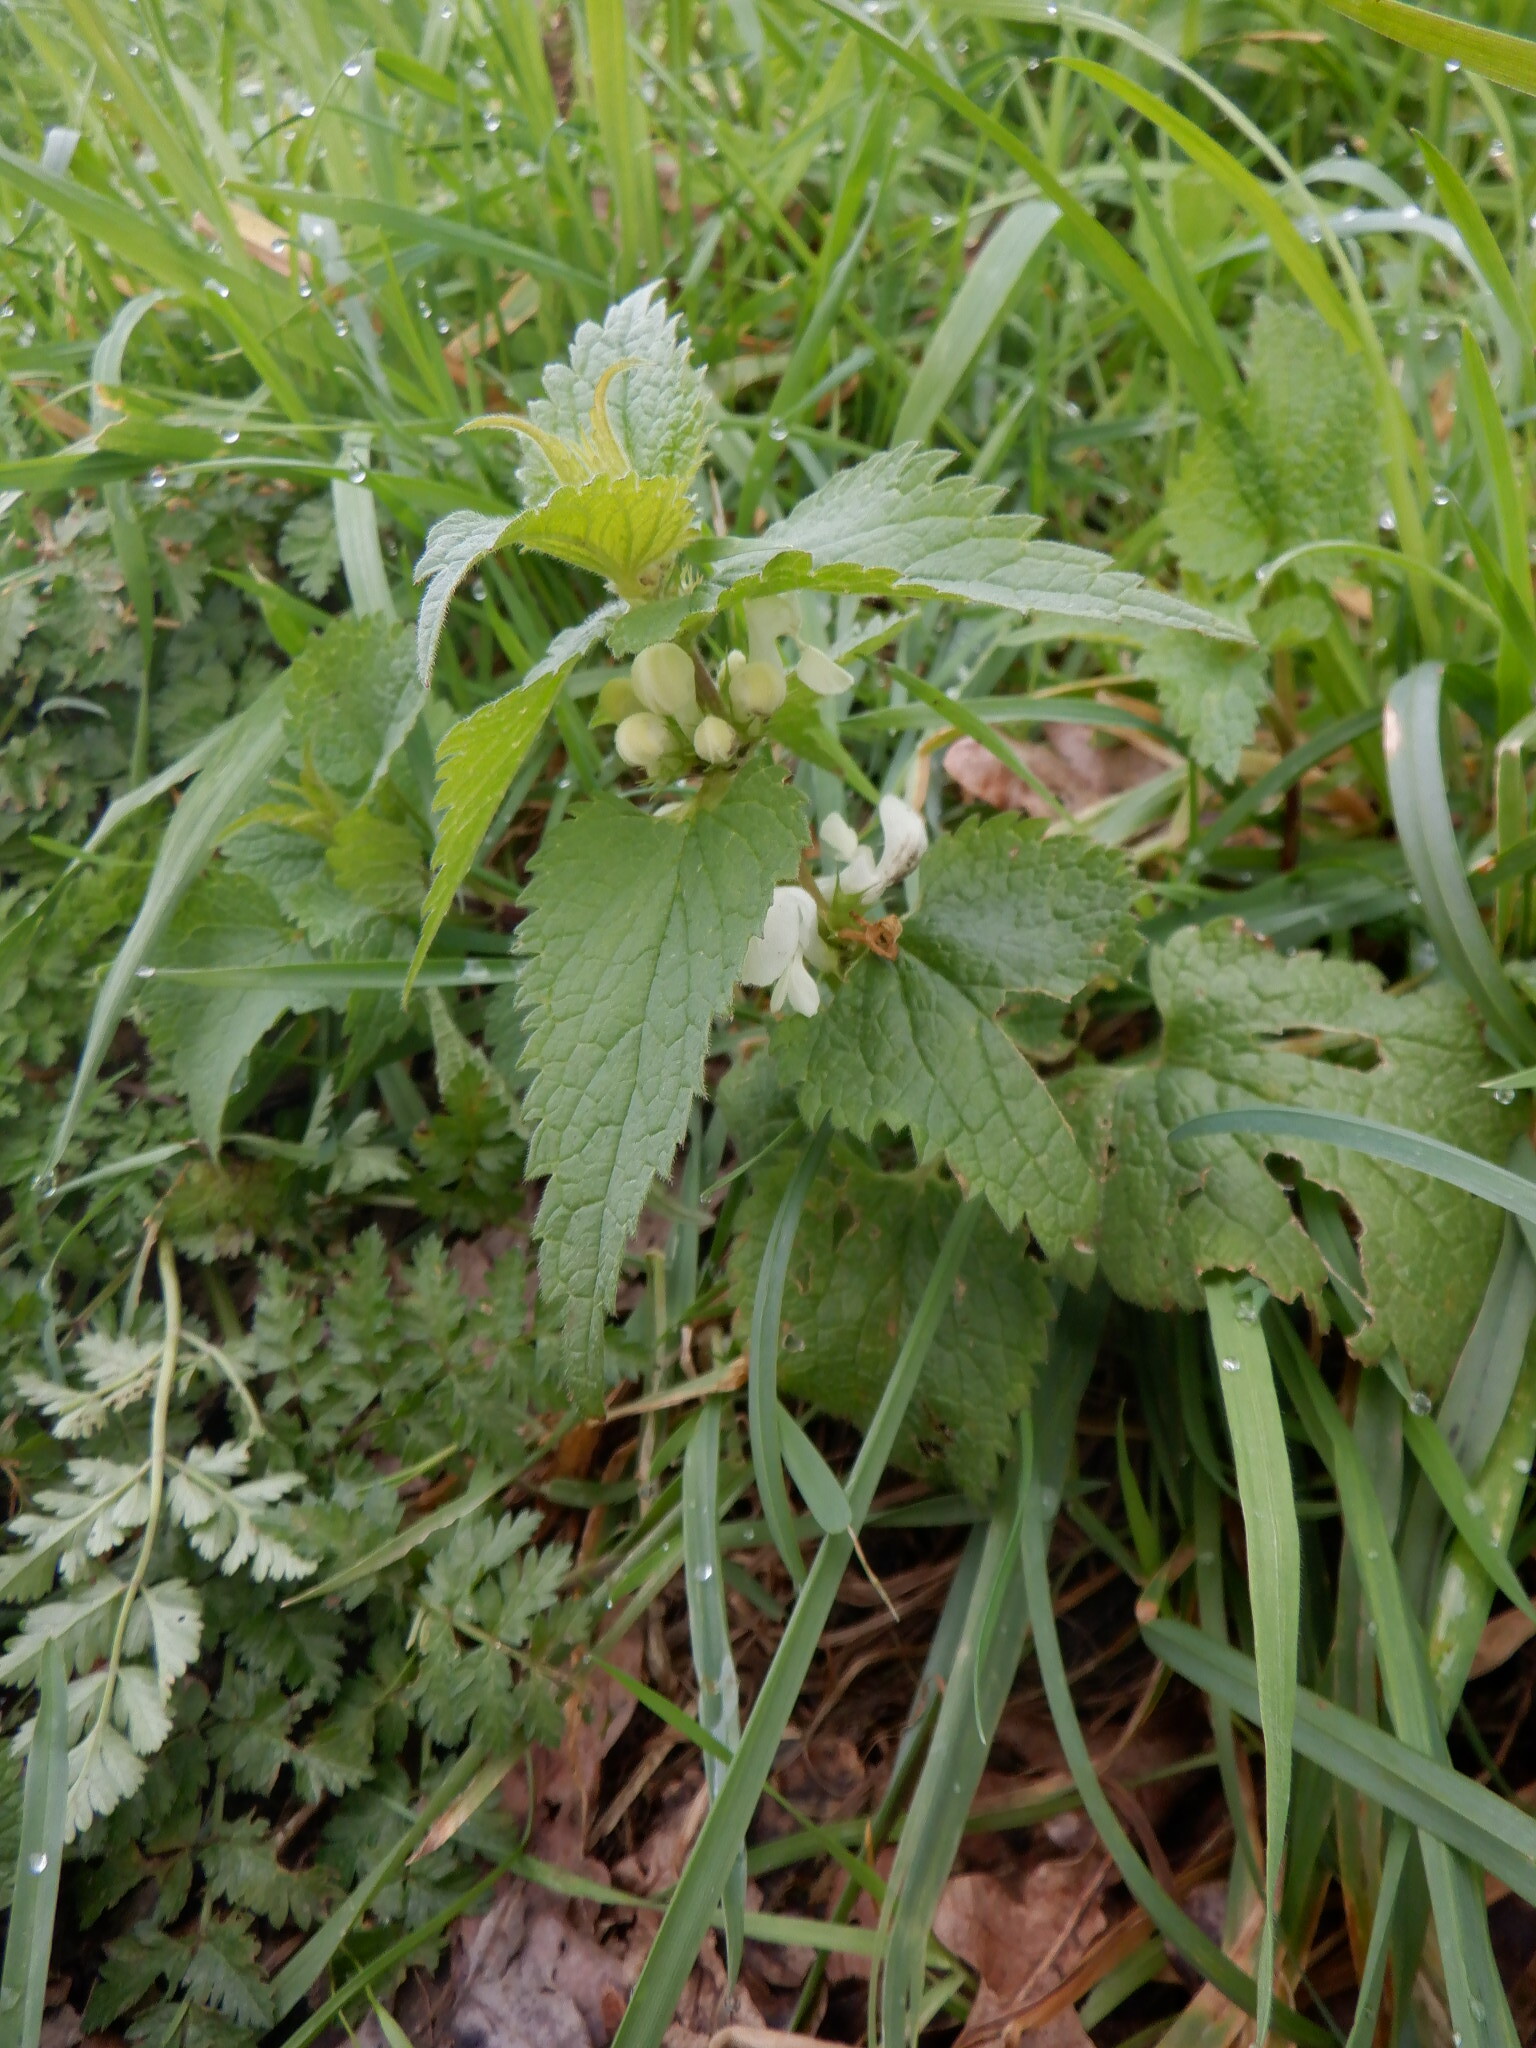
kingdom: Plantae
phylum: Tracheophyta
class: Magnoliopsida
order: Lamiales
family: Lamiaceae
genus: Lamium
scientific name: Lamium album
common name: White dead-nettle
